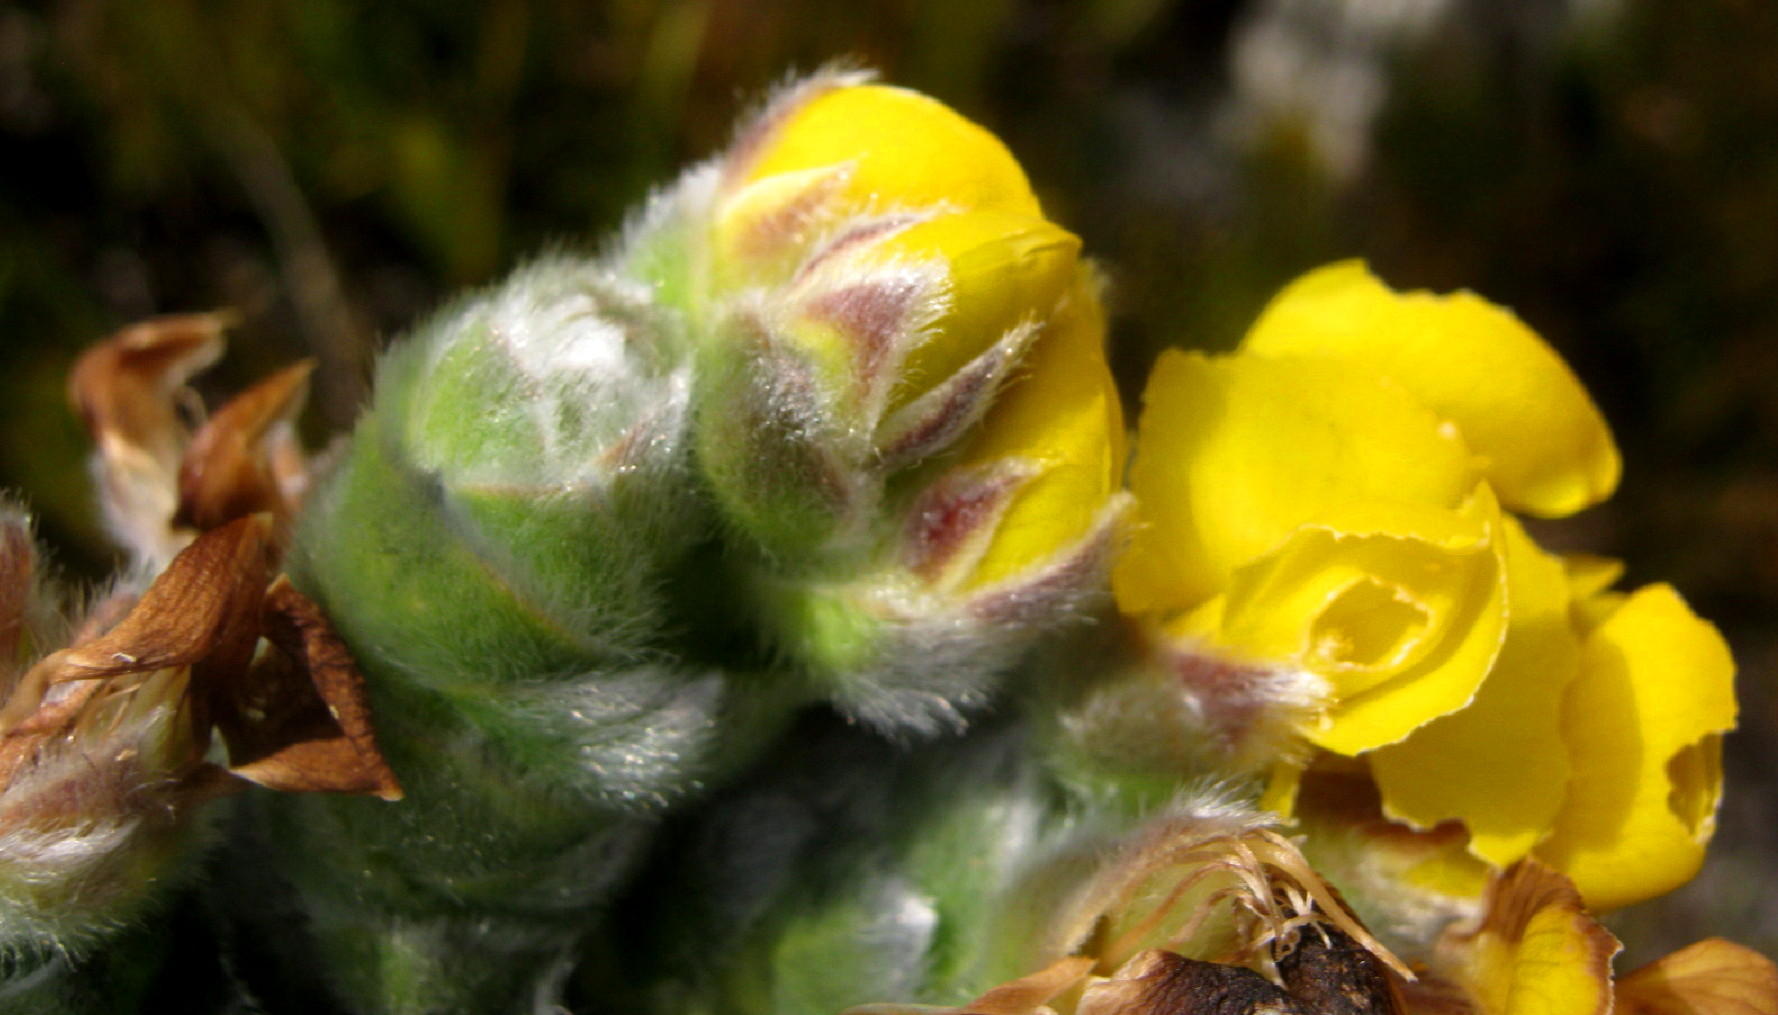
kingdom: Plantae
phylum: Tracheophyta
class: Magnoliopsida
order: Fabales
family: Fabaceae
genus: Liparia
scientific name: Liparia vestita
